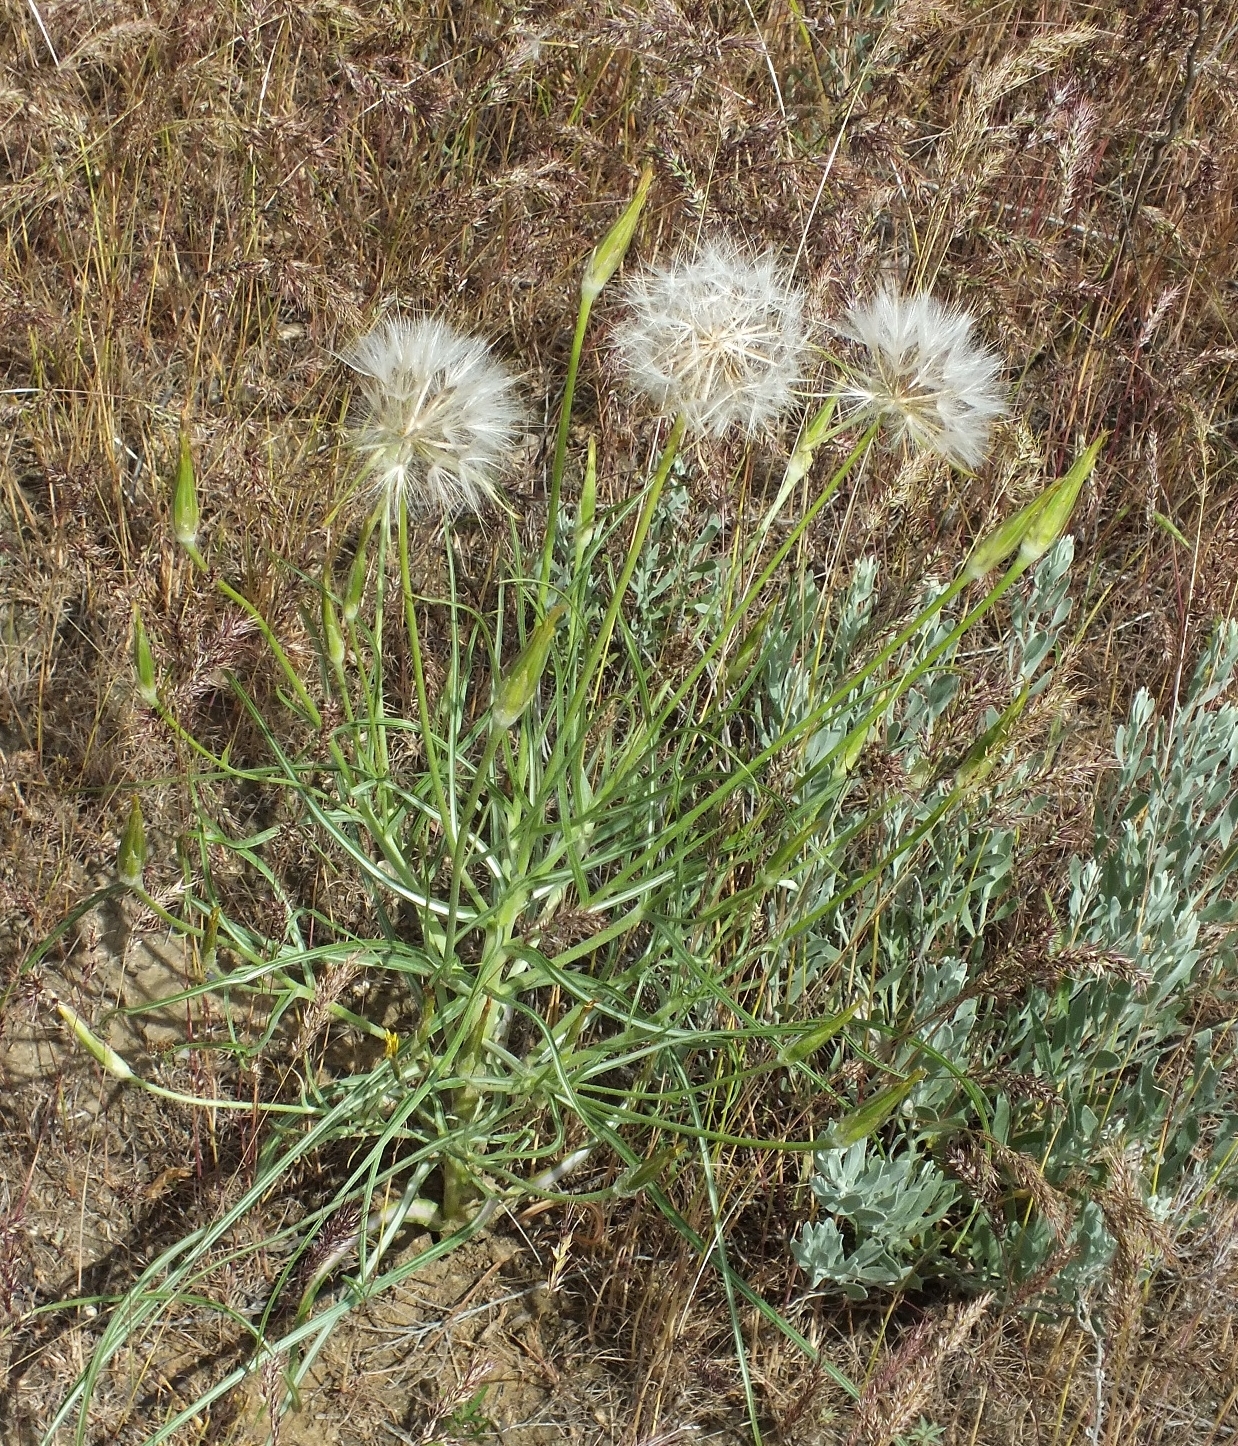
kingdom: Plantae
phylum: Tracheophyta
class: Magnoliopsida
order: Asterales
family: Asteraceae
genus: Candollea
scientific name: Candollea mollis
